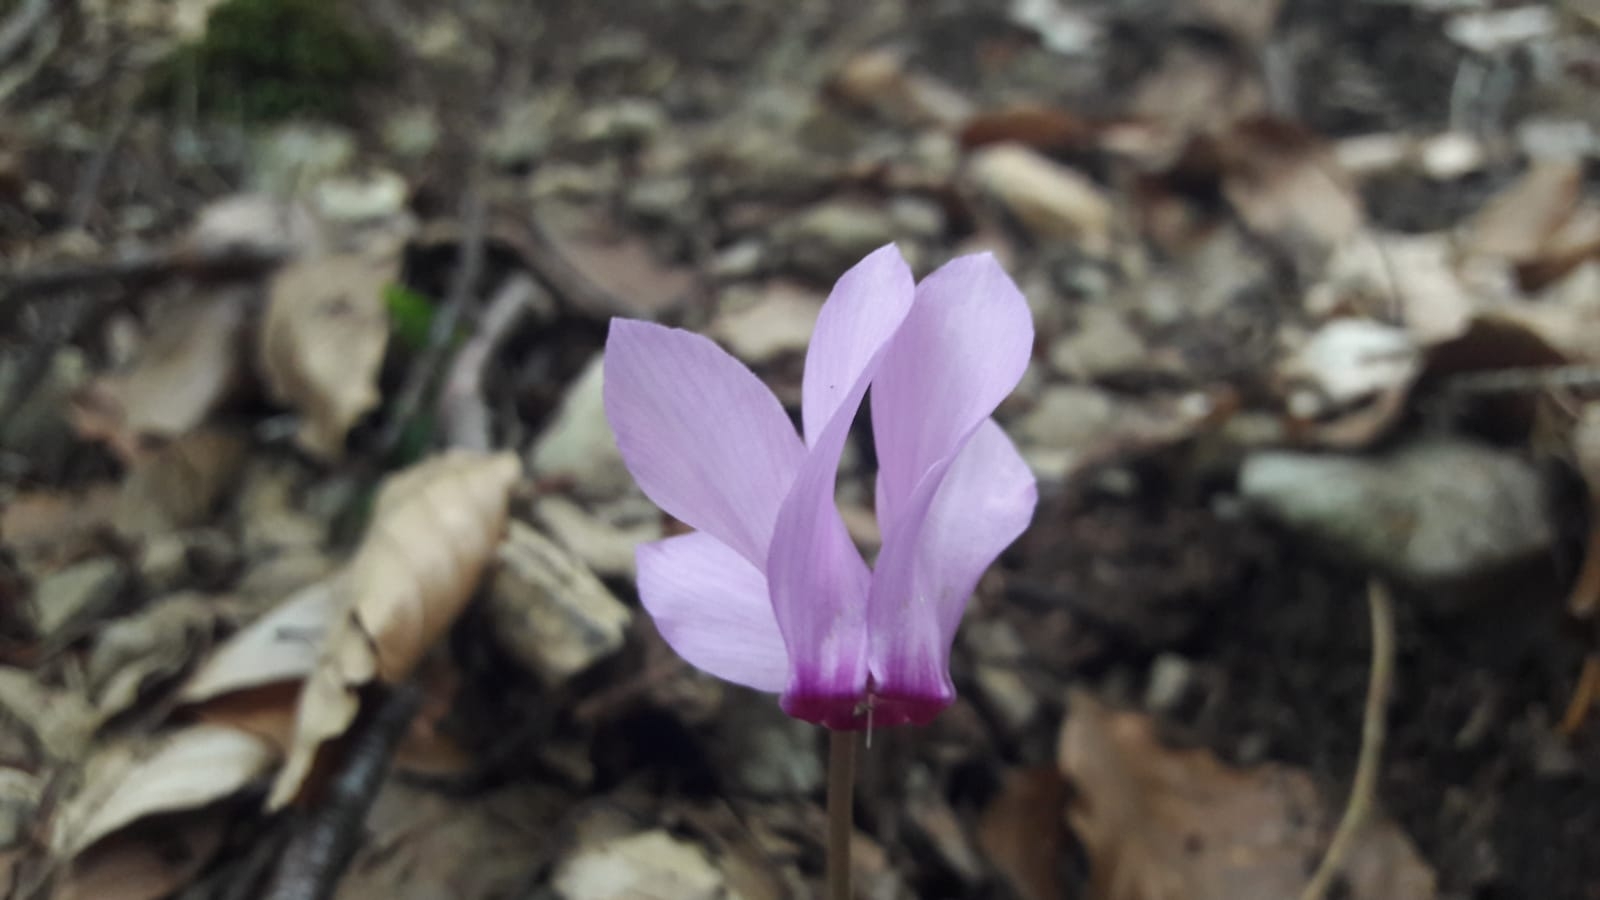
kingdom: Plantae
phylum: Tracheophyta
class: Magnoliopsida
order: Ericales
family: Primulaceae
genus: Cyclamen
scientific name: Cyclamen purpurascens
